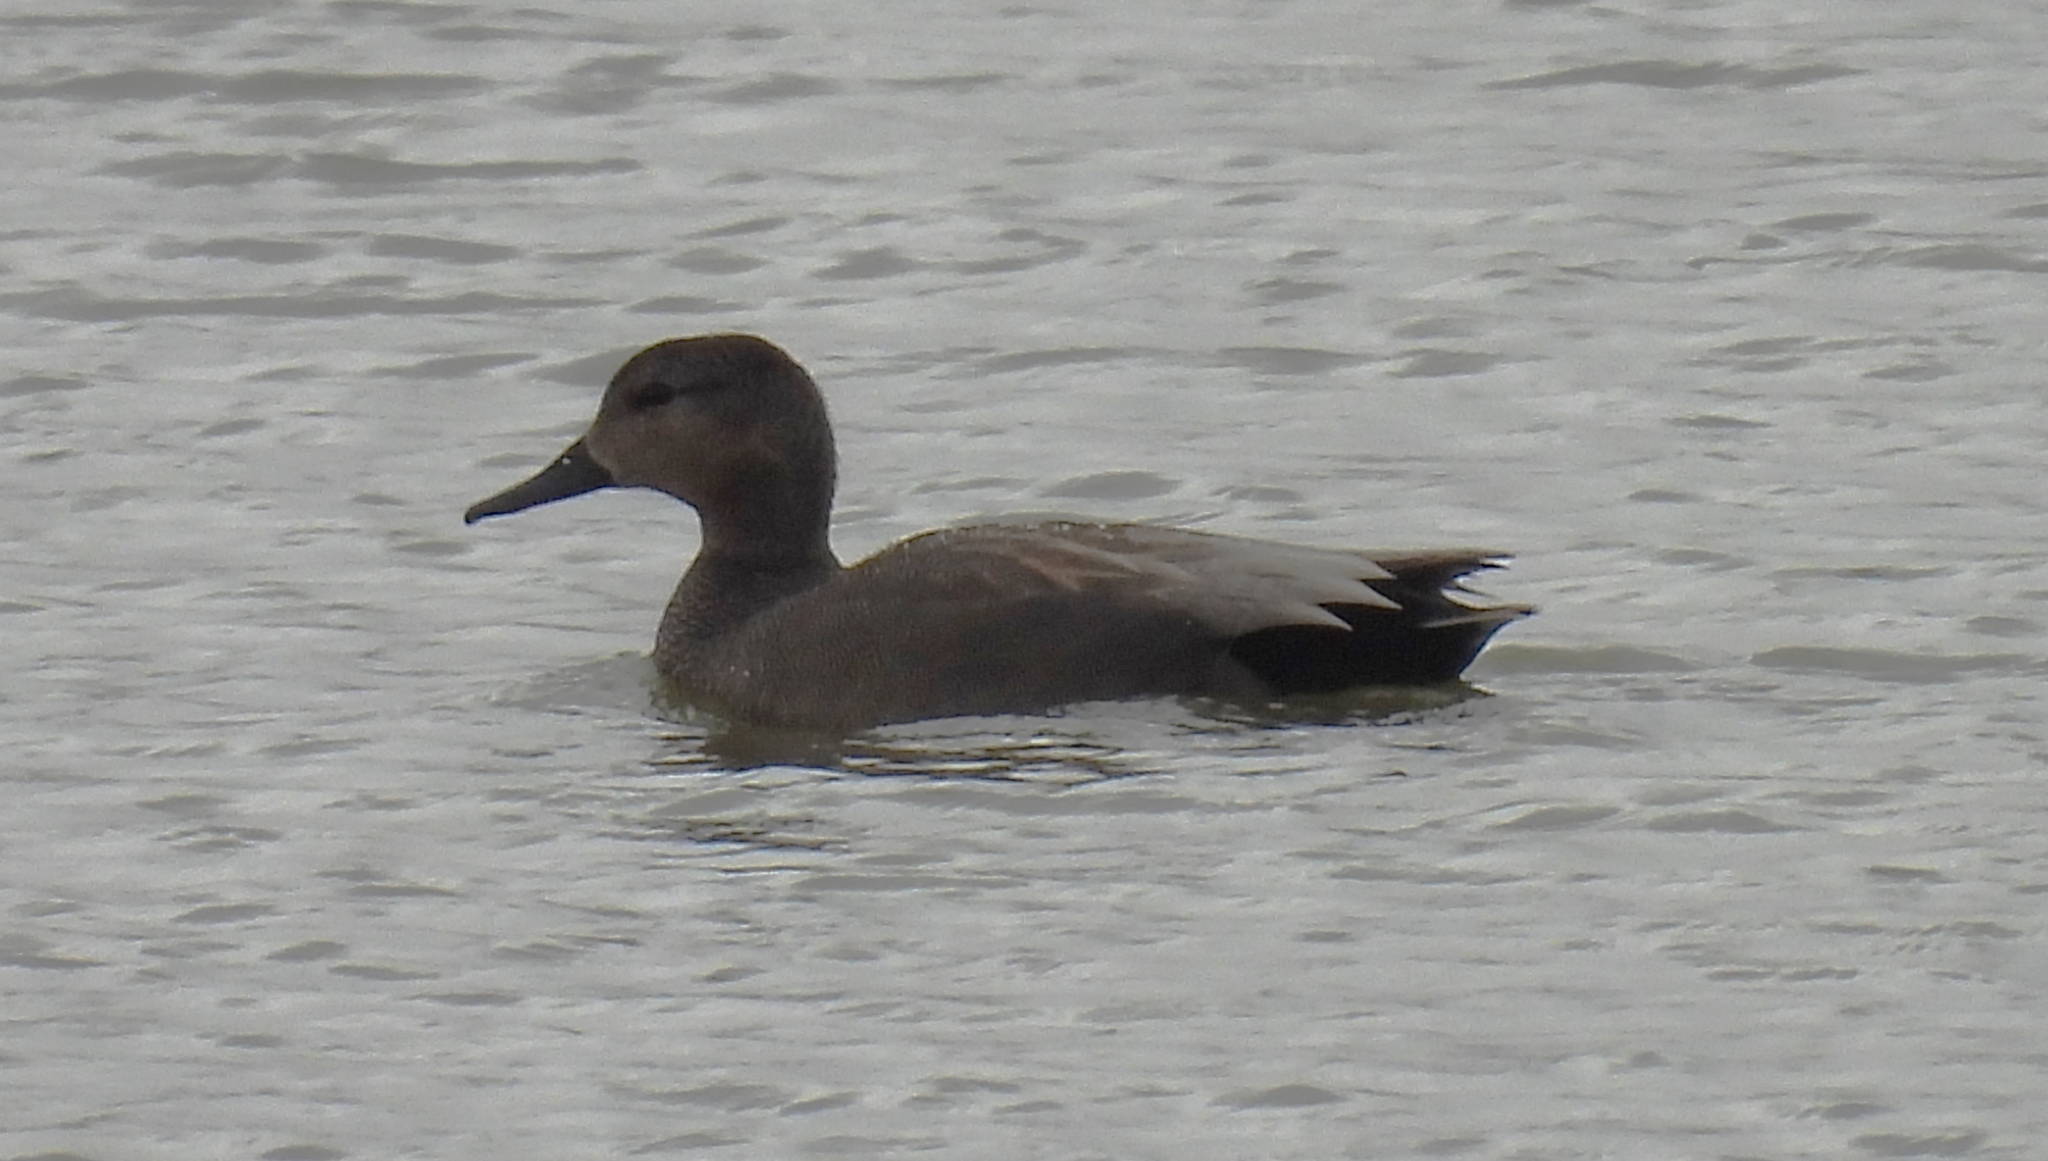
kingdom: Animalia
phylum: Chordata
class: Aves
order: Anseriformes
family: Anatidae
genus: Mareca
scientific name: Mareca strepera
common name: Gadwall
